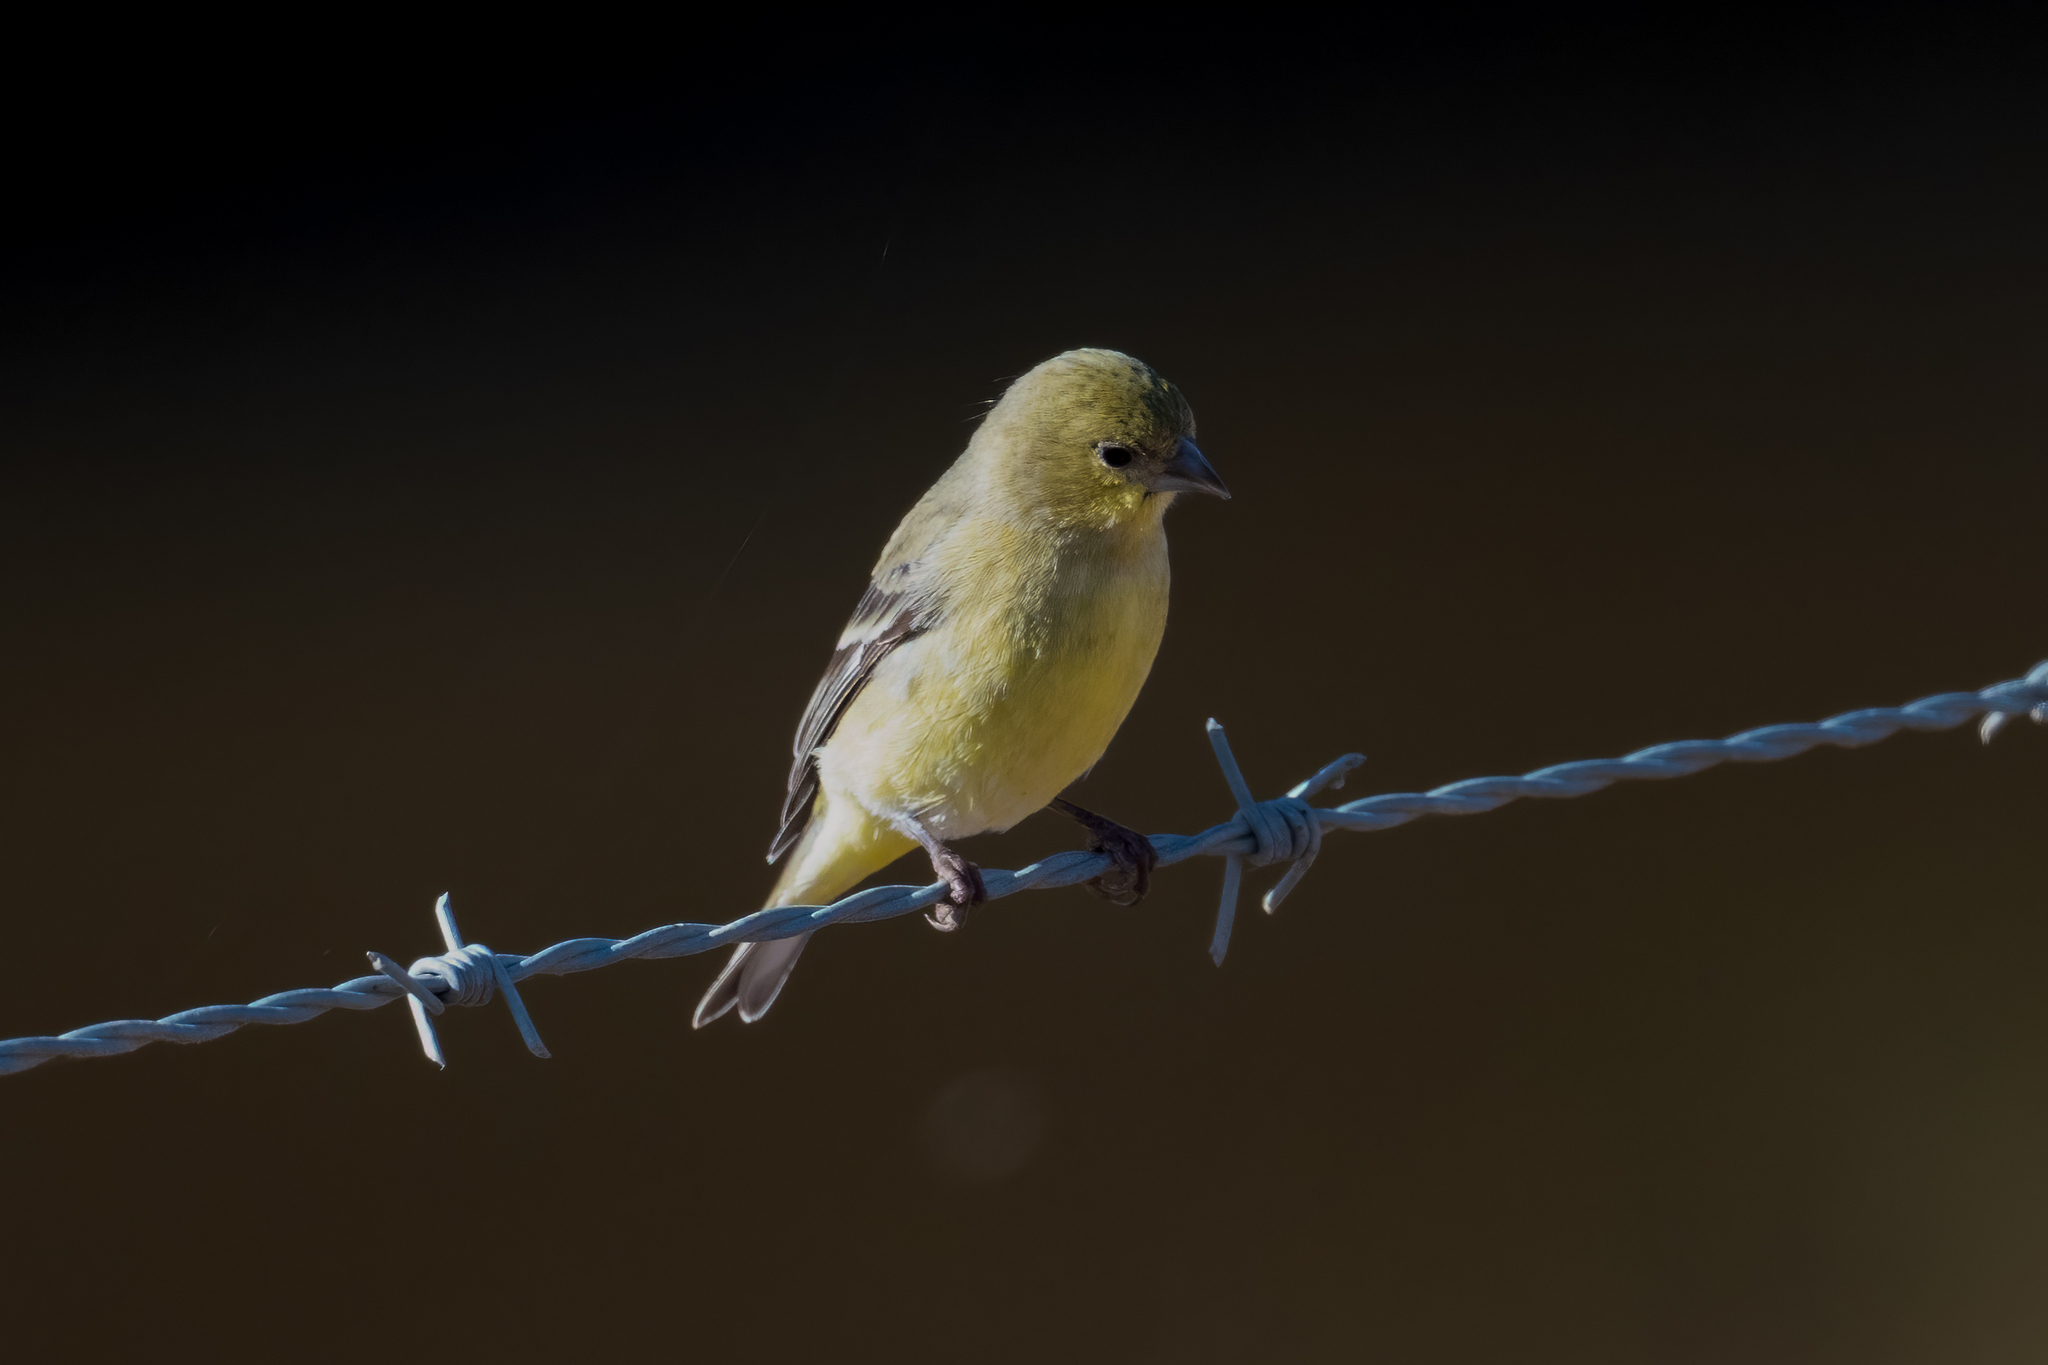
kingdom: Animalia
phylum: Chordata
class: Aves
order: Passeriformes
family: Fringillidae
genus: Spinus
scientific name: Spinus psaltria
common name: Lesser goldfinch
